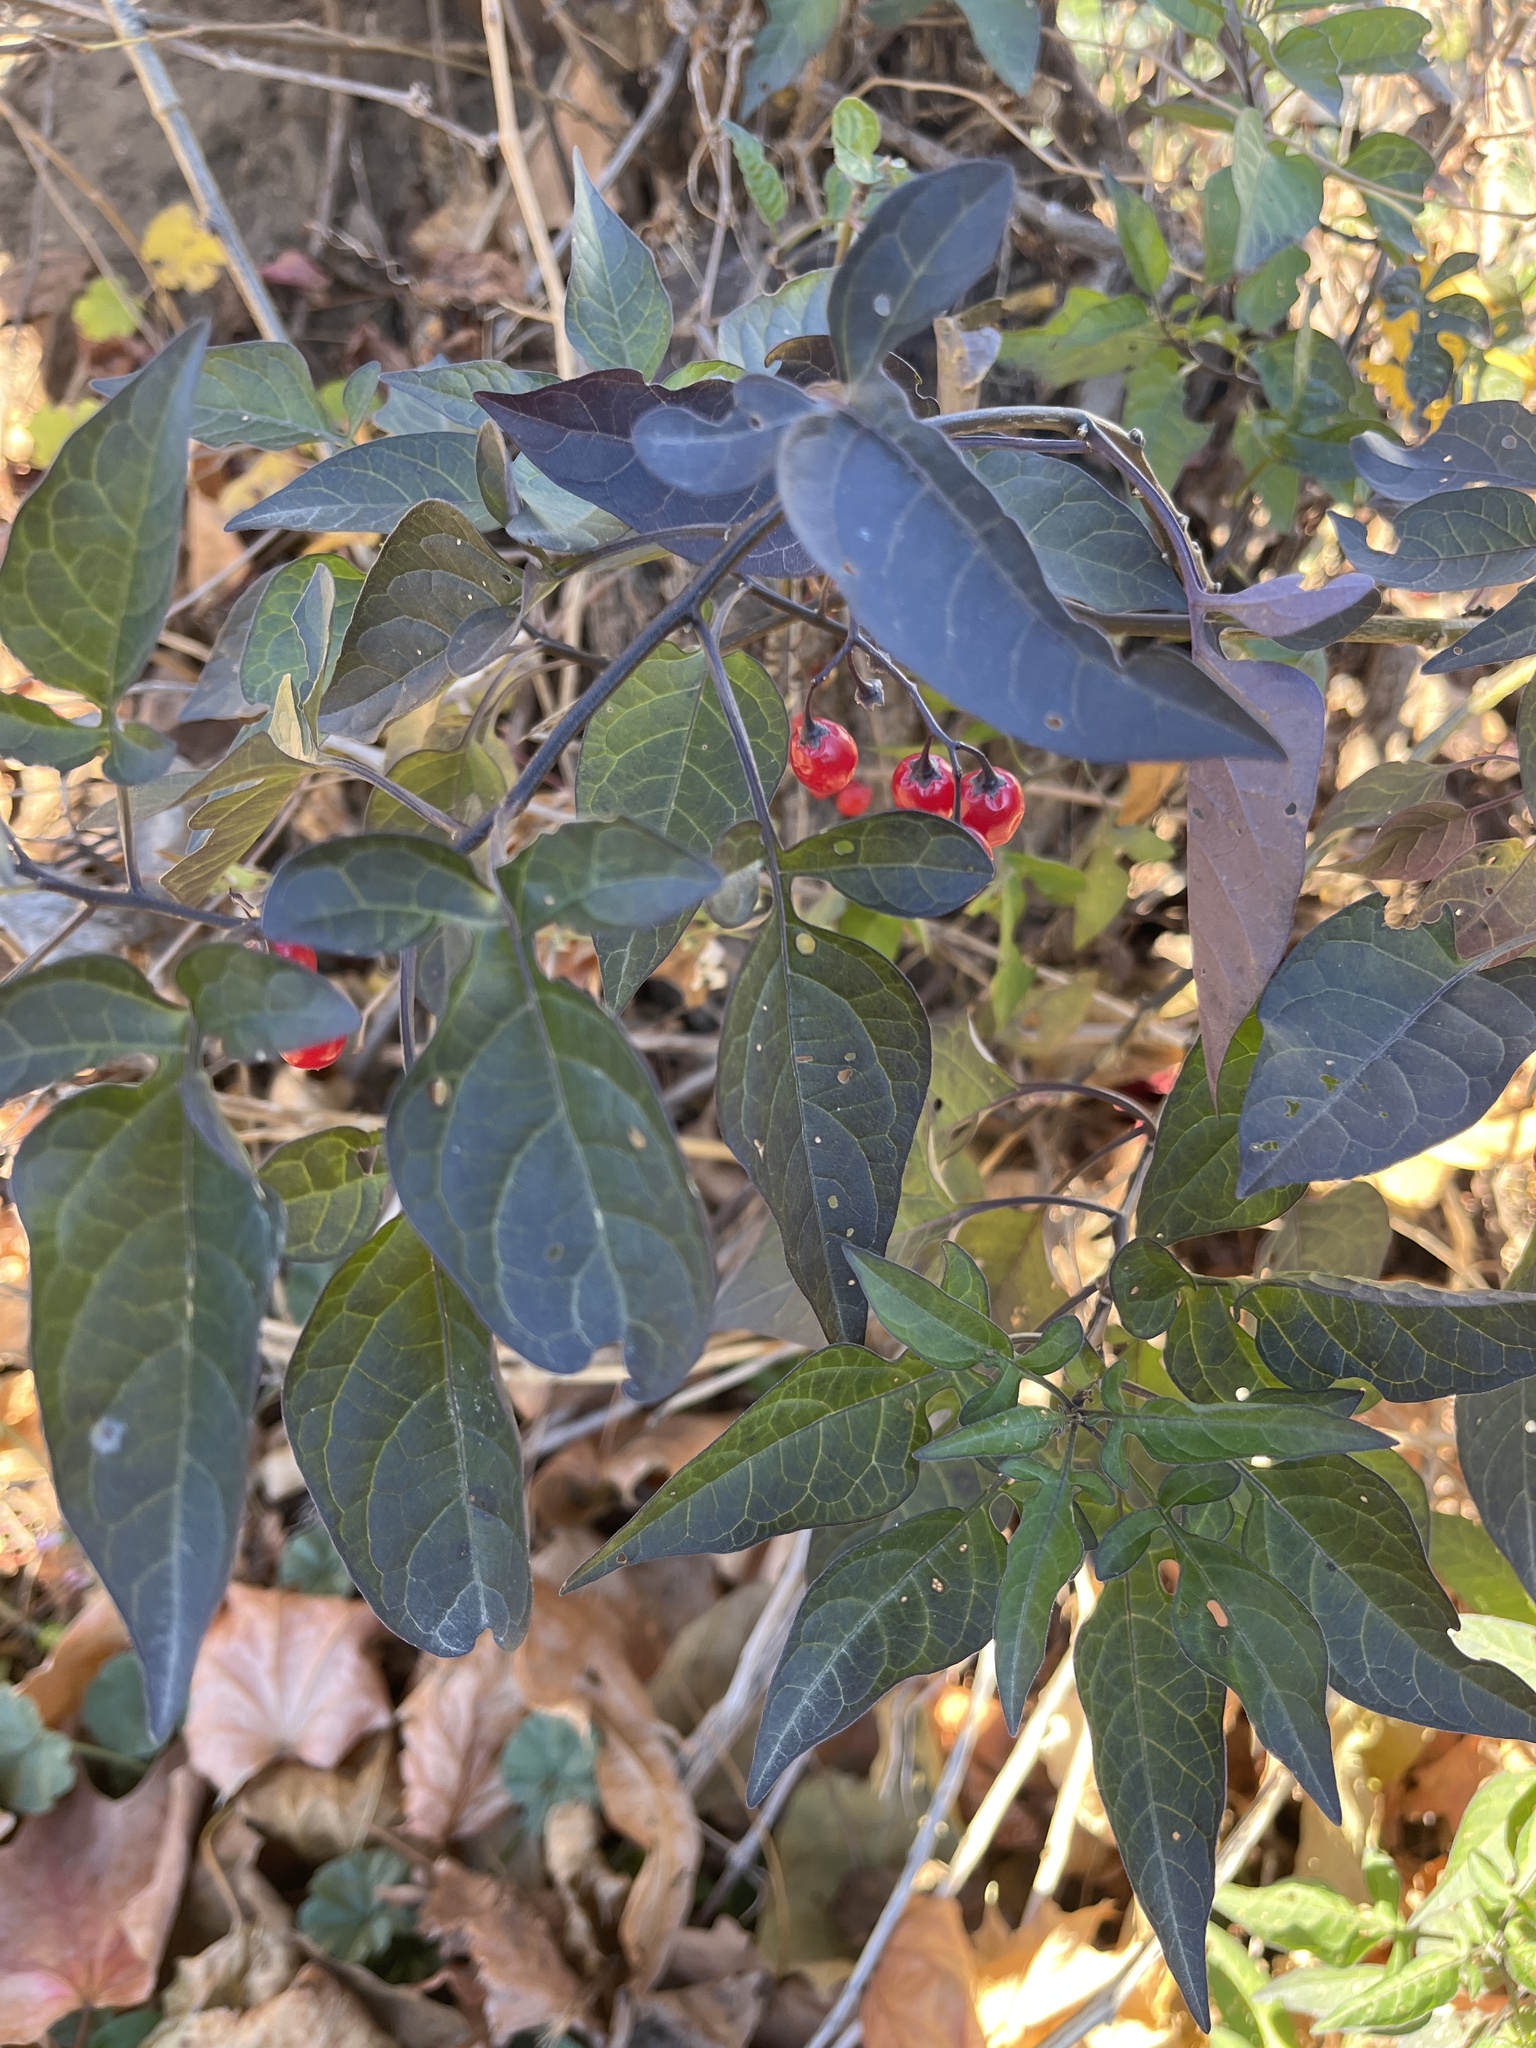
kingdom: Plantae
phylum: Tracheophyta
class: Magnoliopsida
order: Solanales
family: Solanaceae
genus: Solanum
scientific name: Solanum dulcamara
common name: Climbing nightshade
